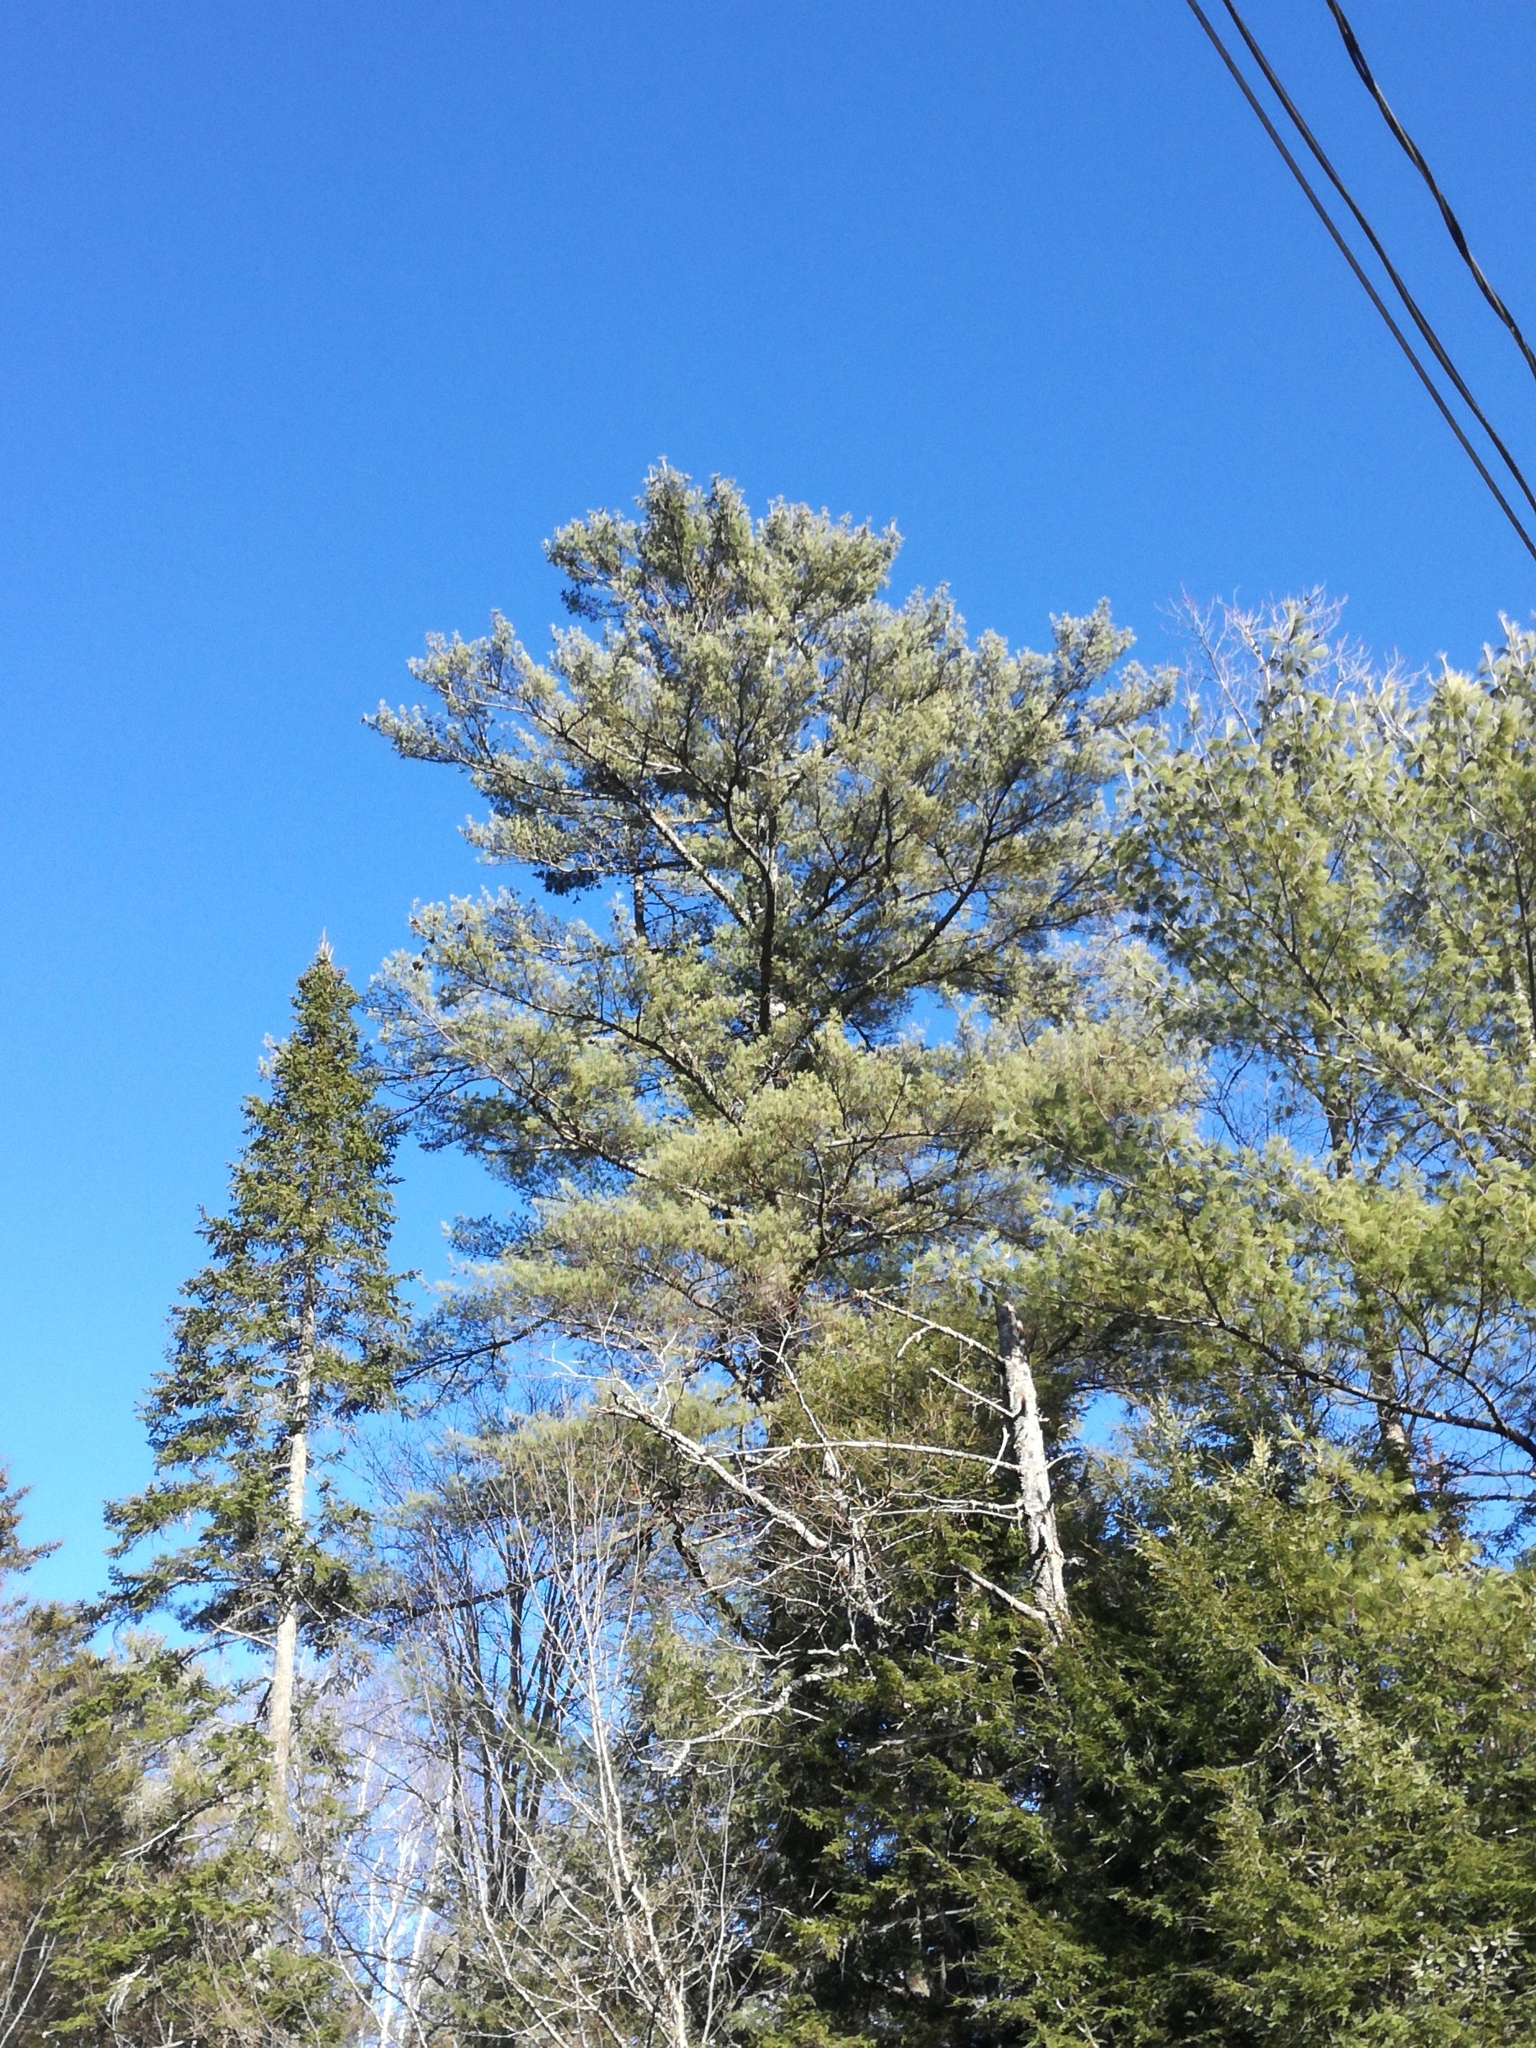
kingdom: Plantae
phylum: Tracheophyta
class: Pinopsida
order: Pinales
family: Pinaceae
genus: Pinus
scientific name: Pinus strobus
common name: Weymouth pine
